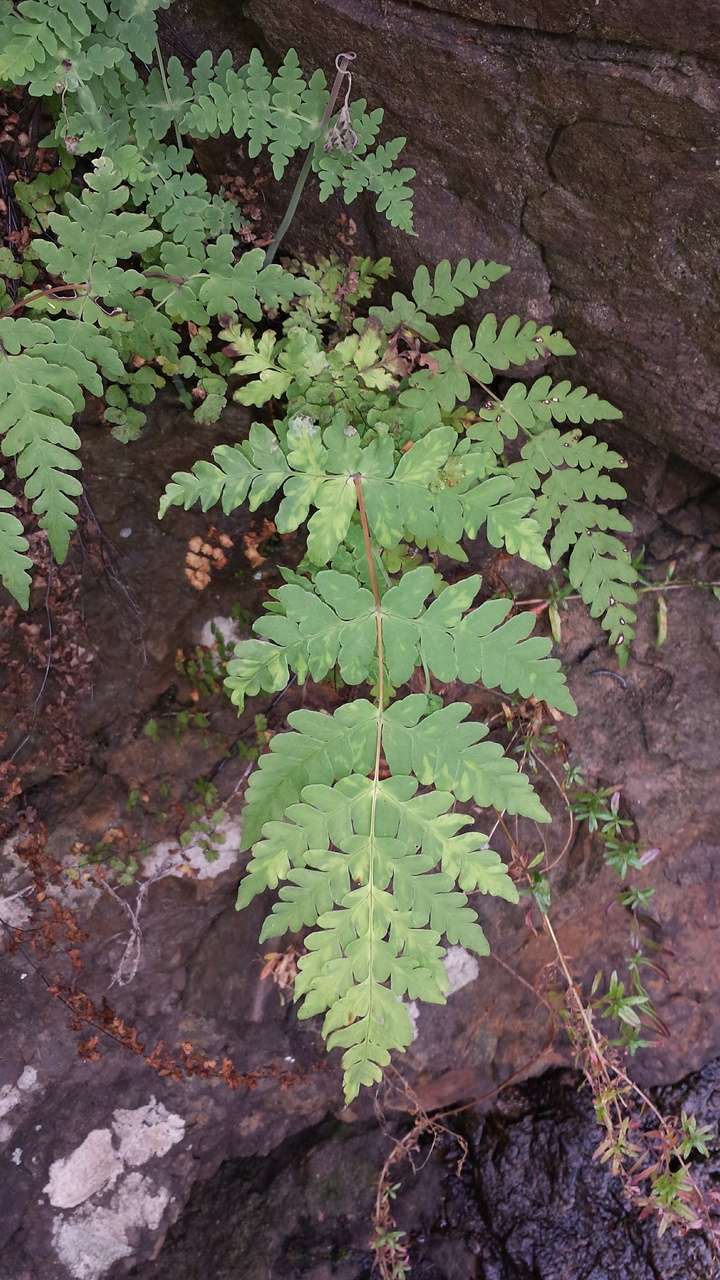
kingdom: Plantae
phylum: Tracheophyta
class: Polypodiopsida
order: Polypodiales
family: Dennstaedtiaceae
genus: Histiopteris
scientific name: Histiopteris incisa
